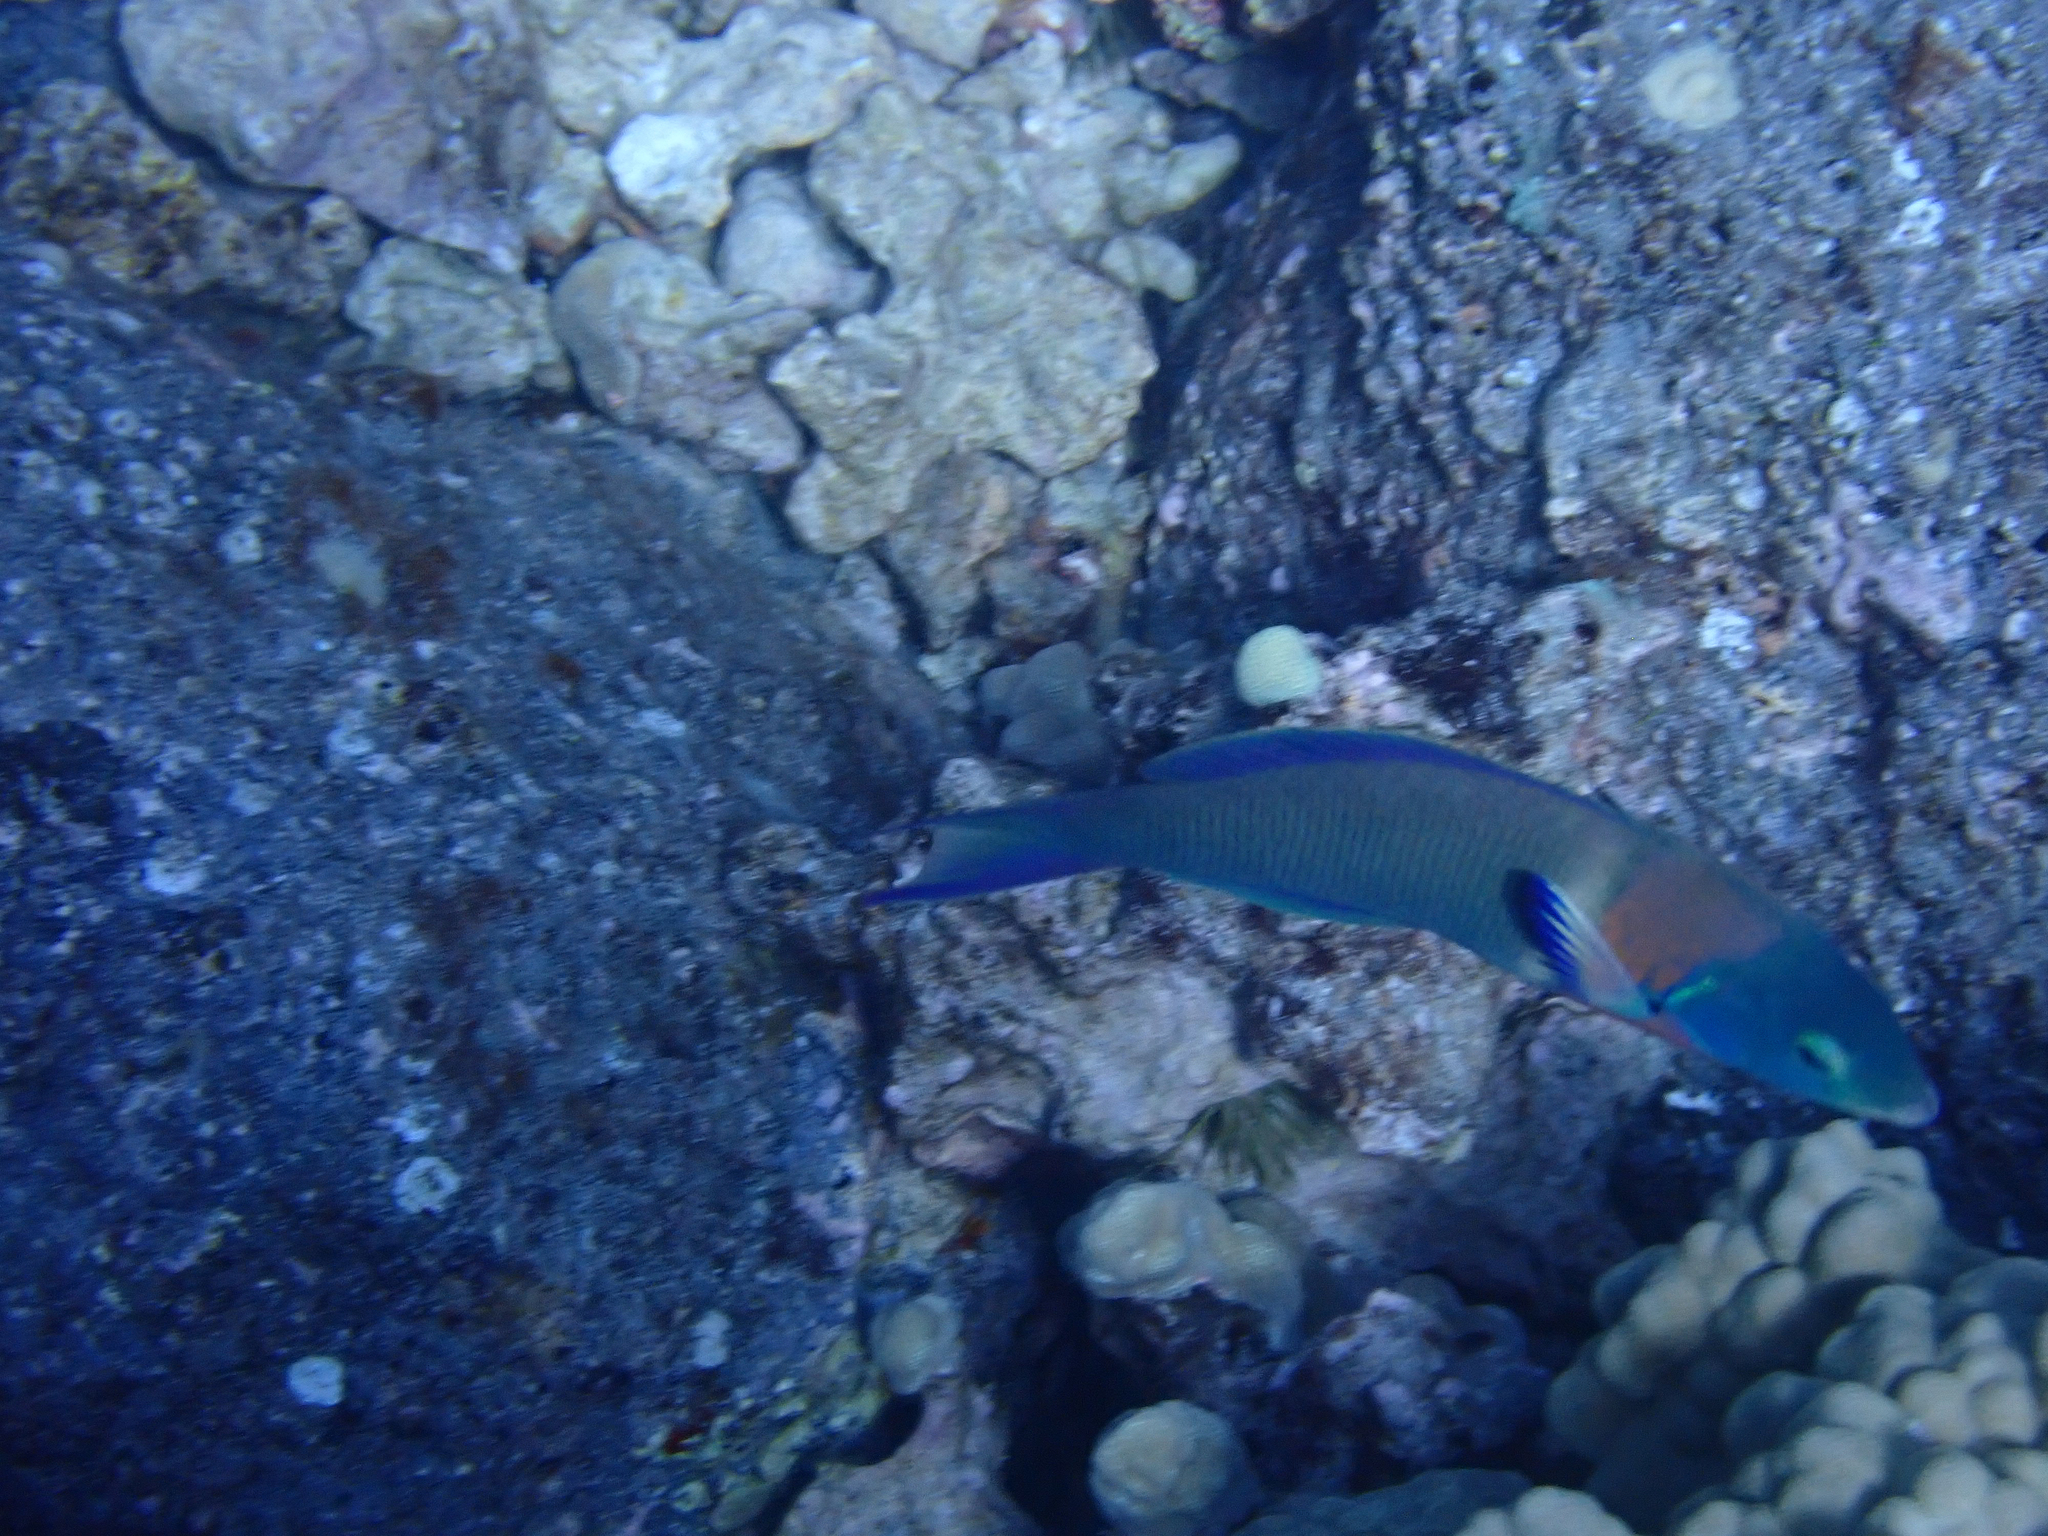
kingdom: Animalia
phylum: Chordata
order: Perciformes
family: Labridae
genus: Thalassoma
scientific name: Thalassoma duperrey
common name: Saddle wrasse
